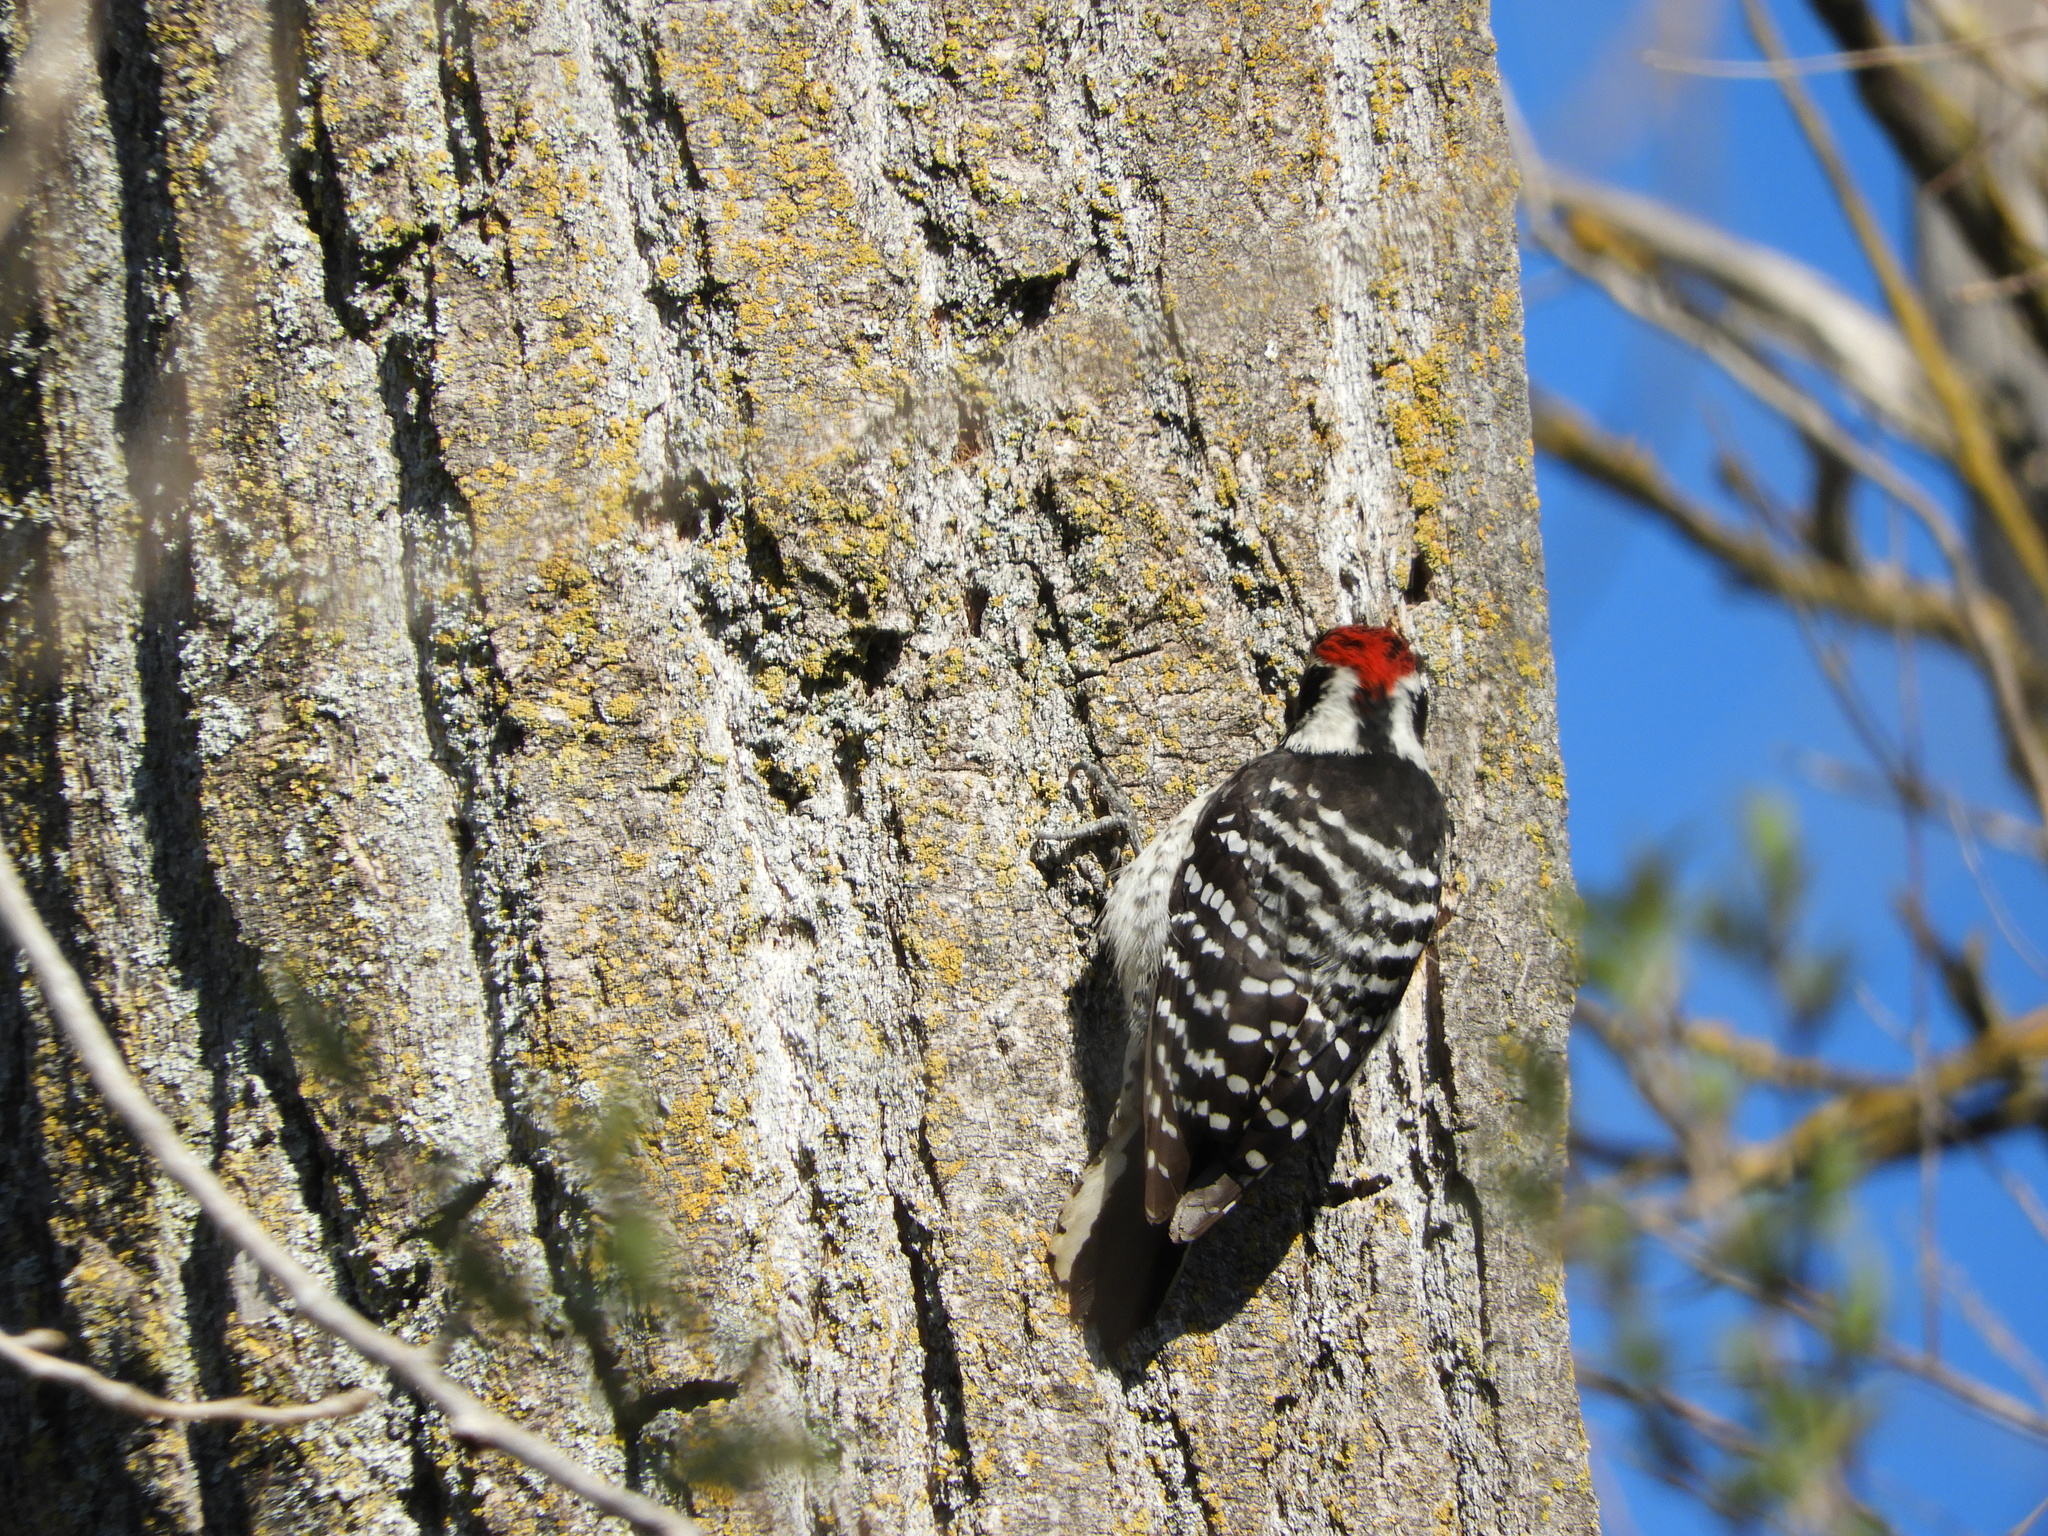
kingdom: Animalia
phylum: Chordata
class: Aves
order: Piciformes
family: Picidae
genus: Dryobates
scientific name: Dryobates nuttallii
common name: Nuttall's woodpecker
